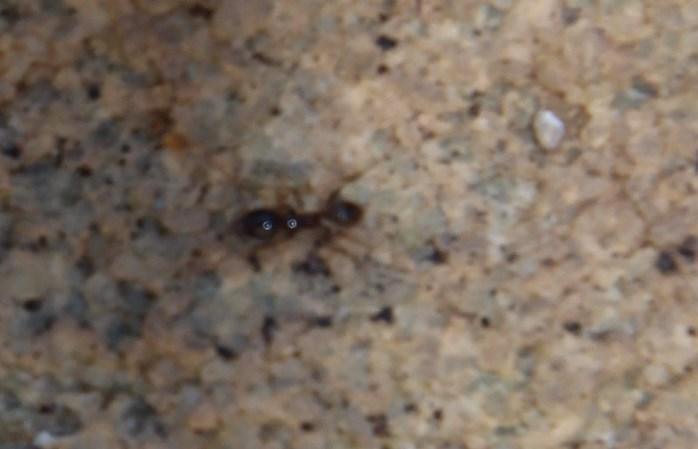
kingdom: Animalia
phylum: Arthropoda
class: Insecta
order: Hymenoptera
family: Formicidae
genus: Pheidole
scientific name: Pheidole megacephala
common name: Bigheaded ant
